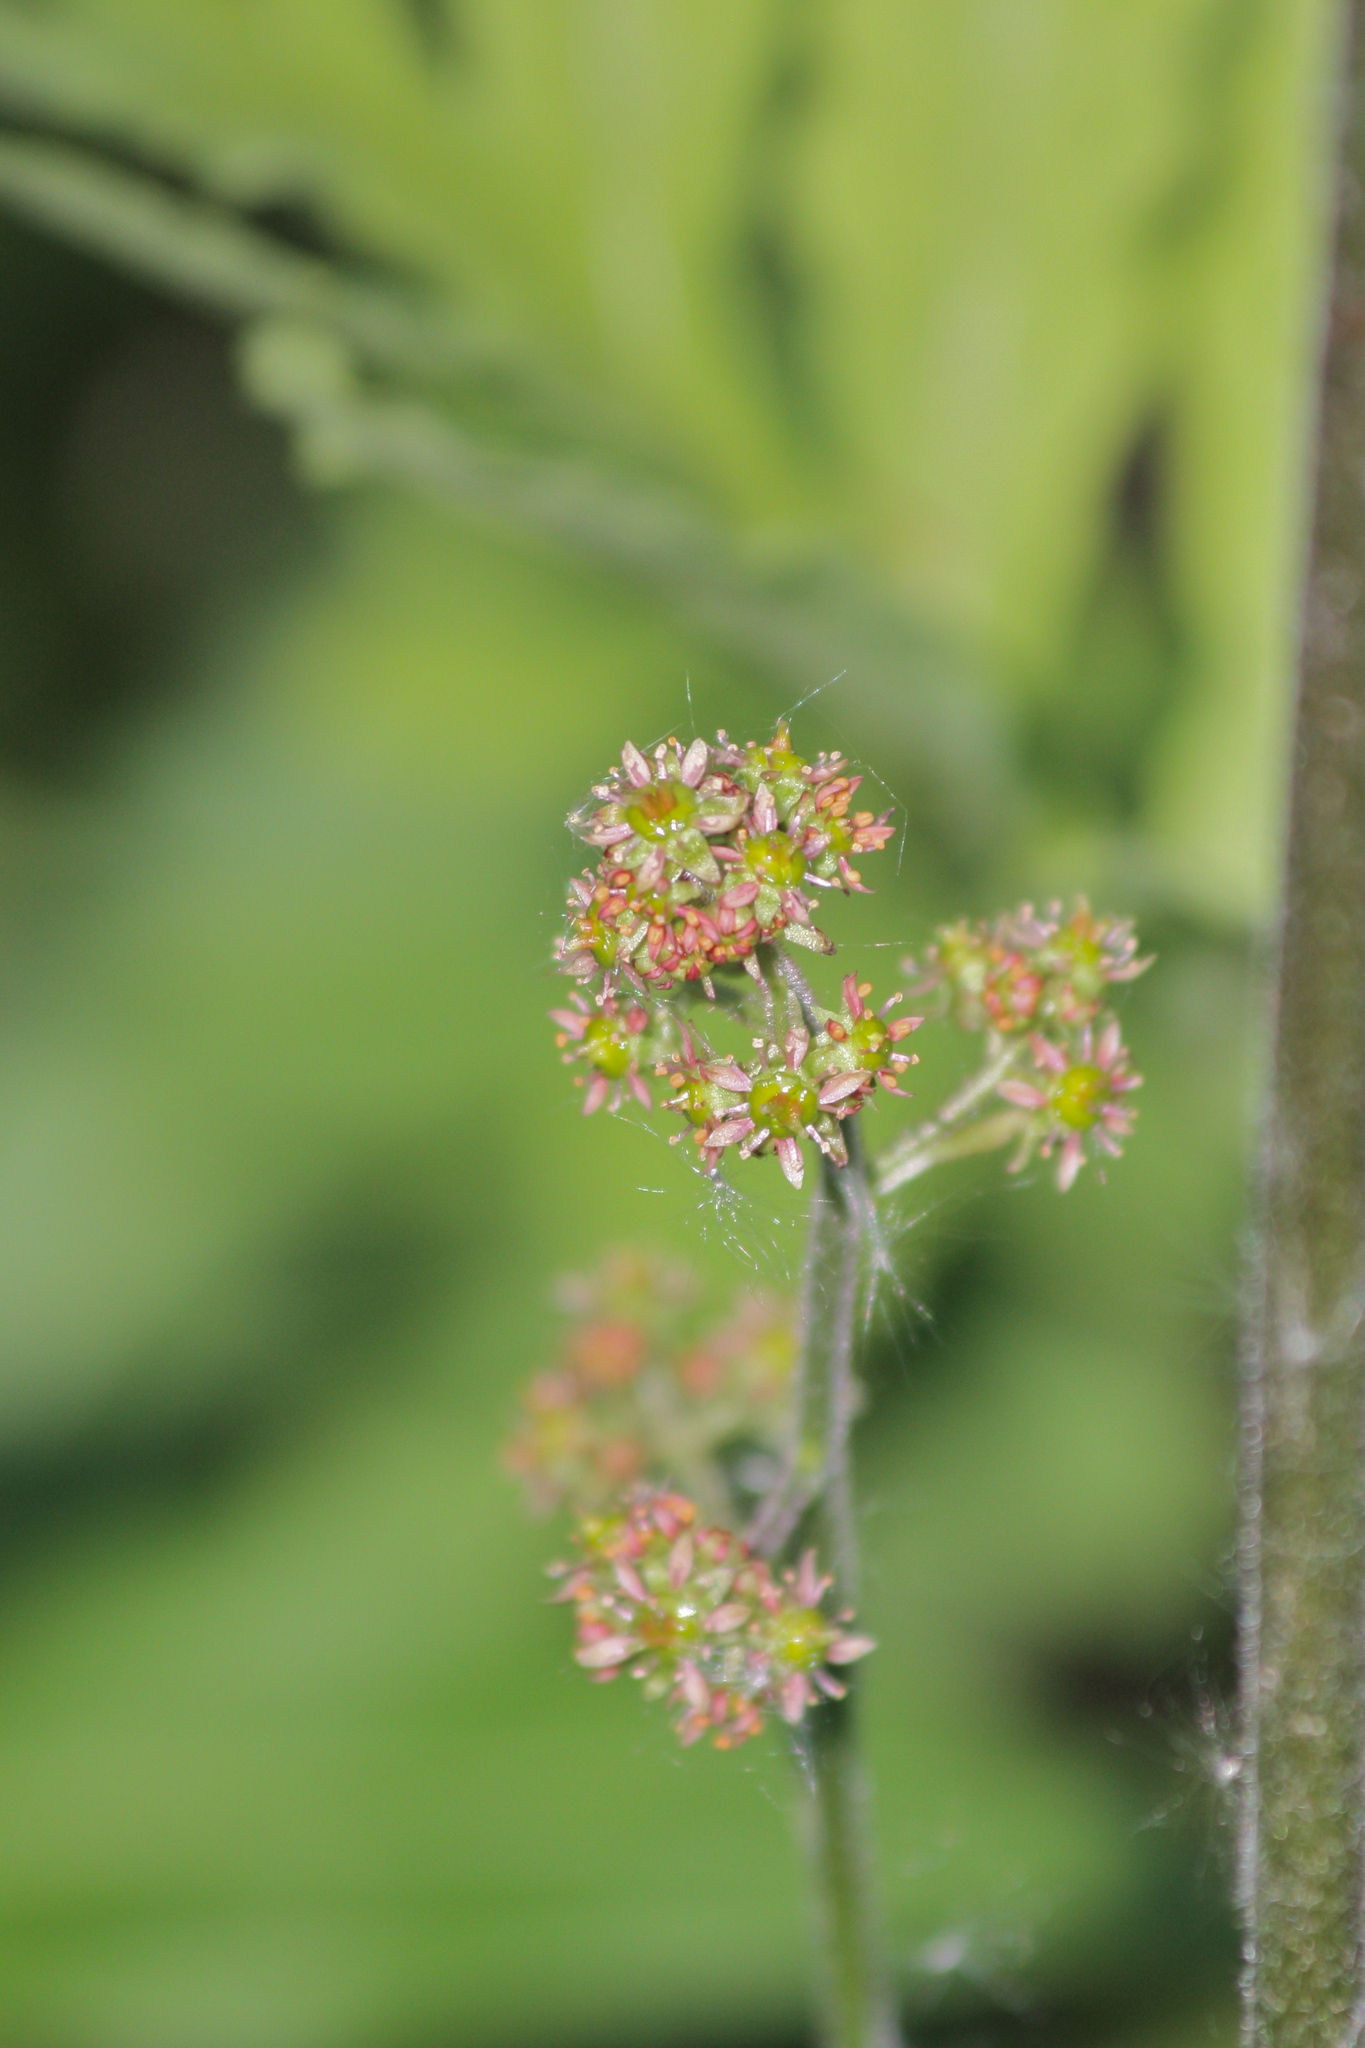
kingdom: Plantae
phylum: Tracheophyta
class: Magnoliopsida
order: Saxifragales
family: Saxifragaceae
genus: Micranthes
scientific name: Micranthes pensylvanica
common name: Marsh saxifrage
